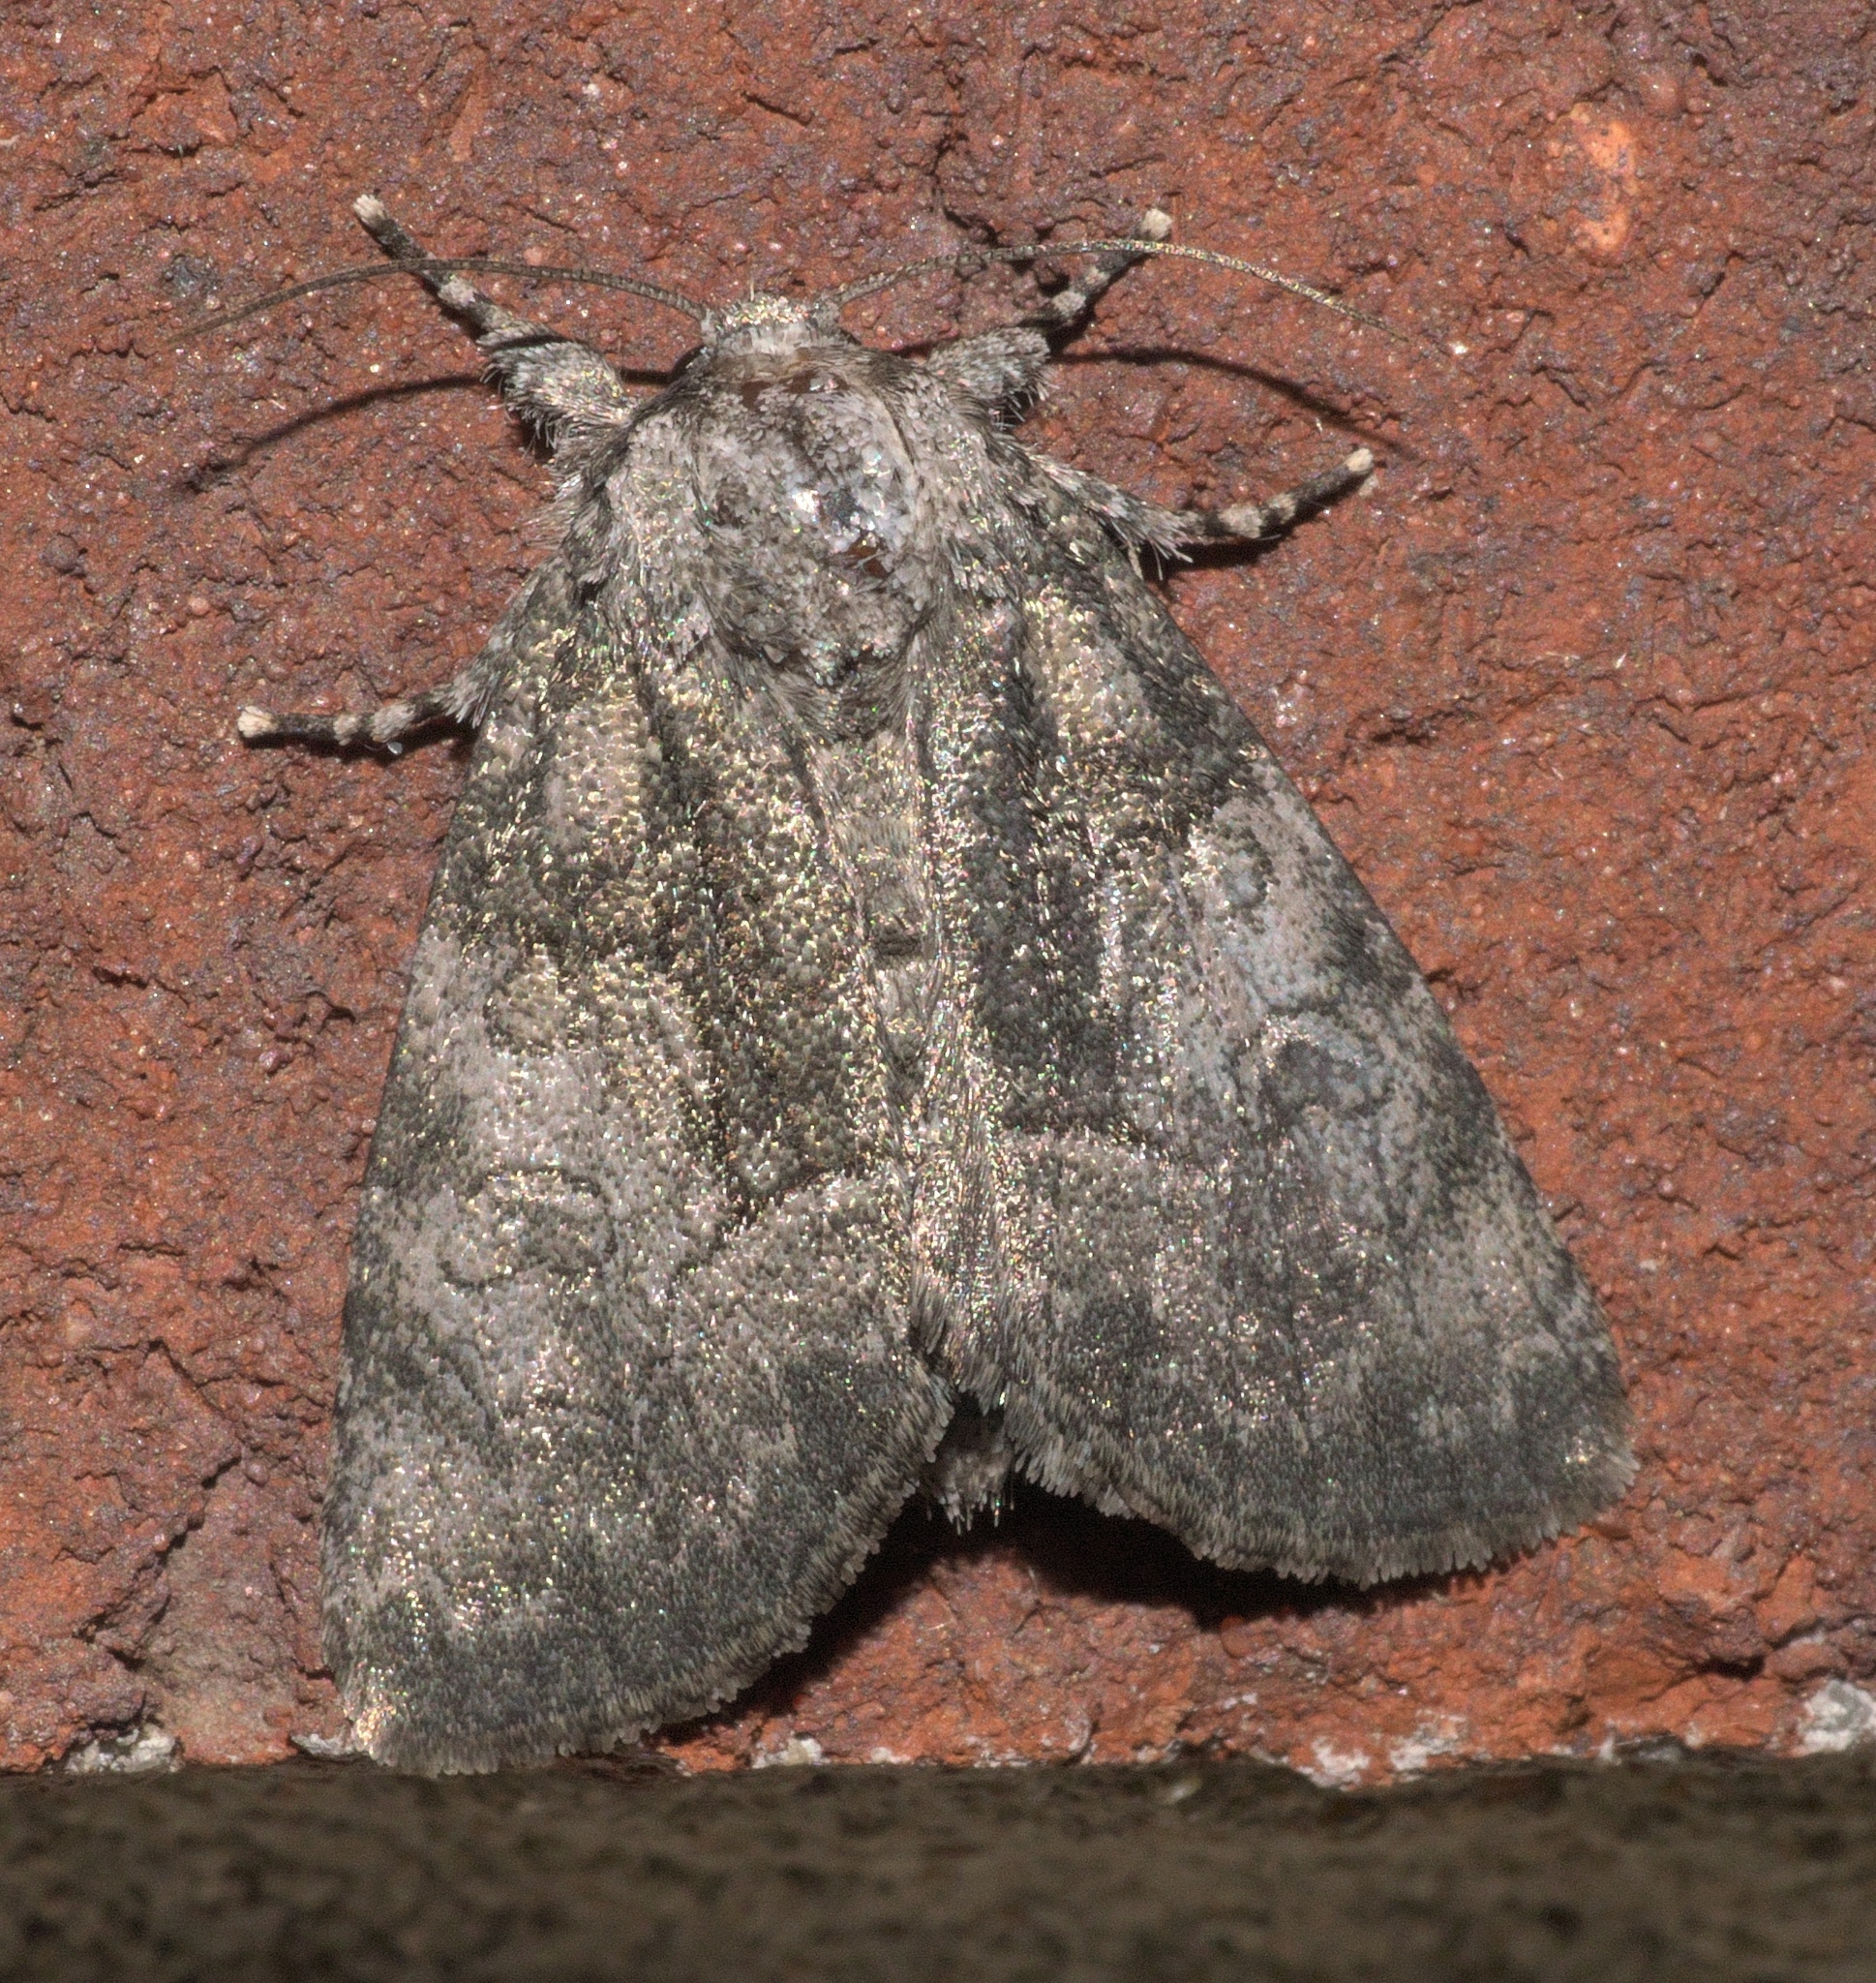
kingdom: Animalia
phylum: Arthropoda
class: Insecta
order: Lepidoptera
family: Noctuidae
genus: Raphia
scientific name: Raphia frater
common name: Brother
